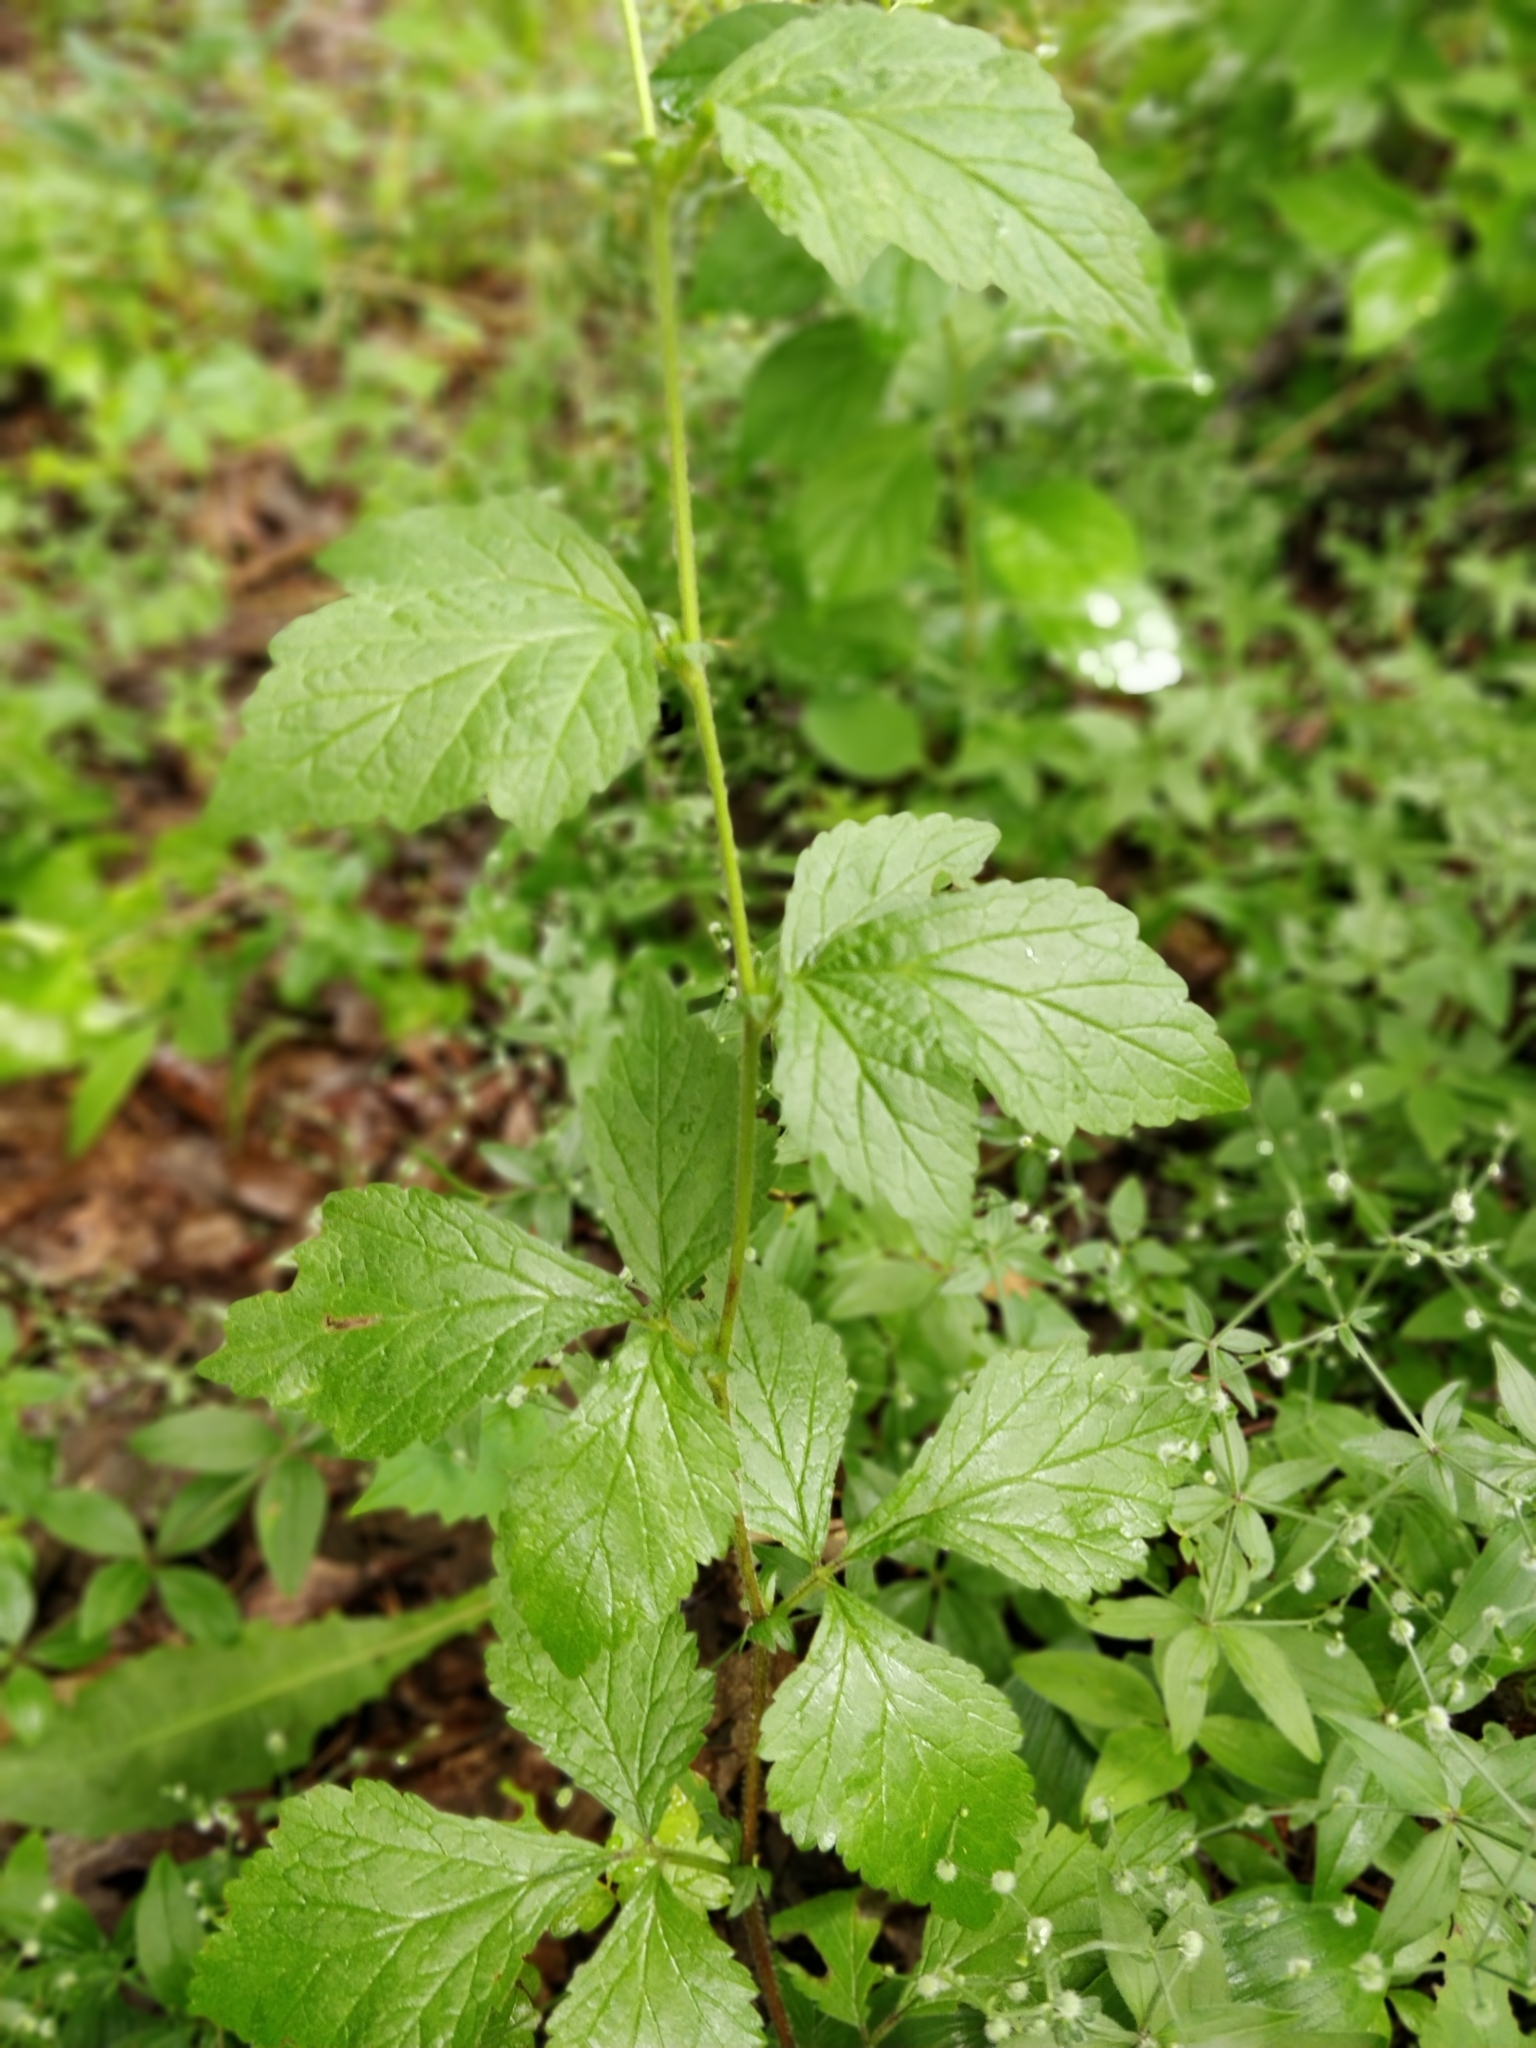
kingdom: Plantae
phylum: Tracheophyta
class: Magnoliopsida
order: Rosales
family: Rosaceae
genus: Geum
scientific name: Geum canadense
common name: White avens
